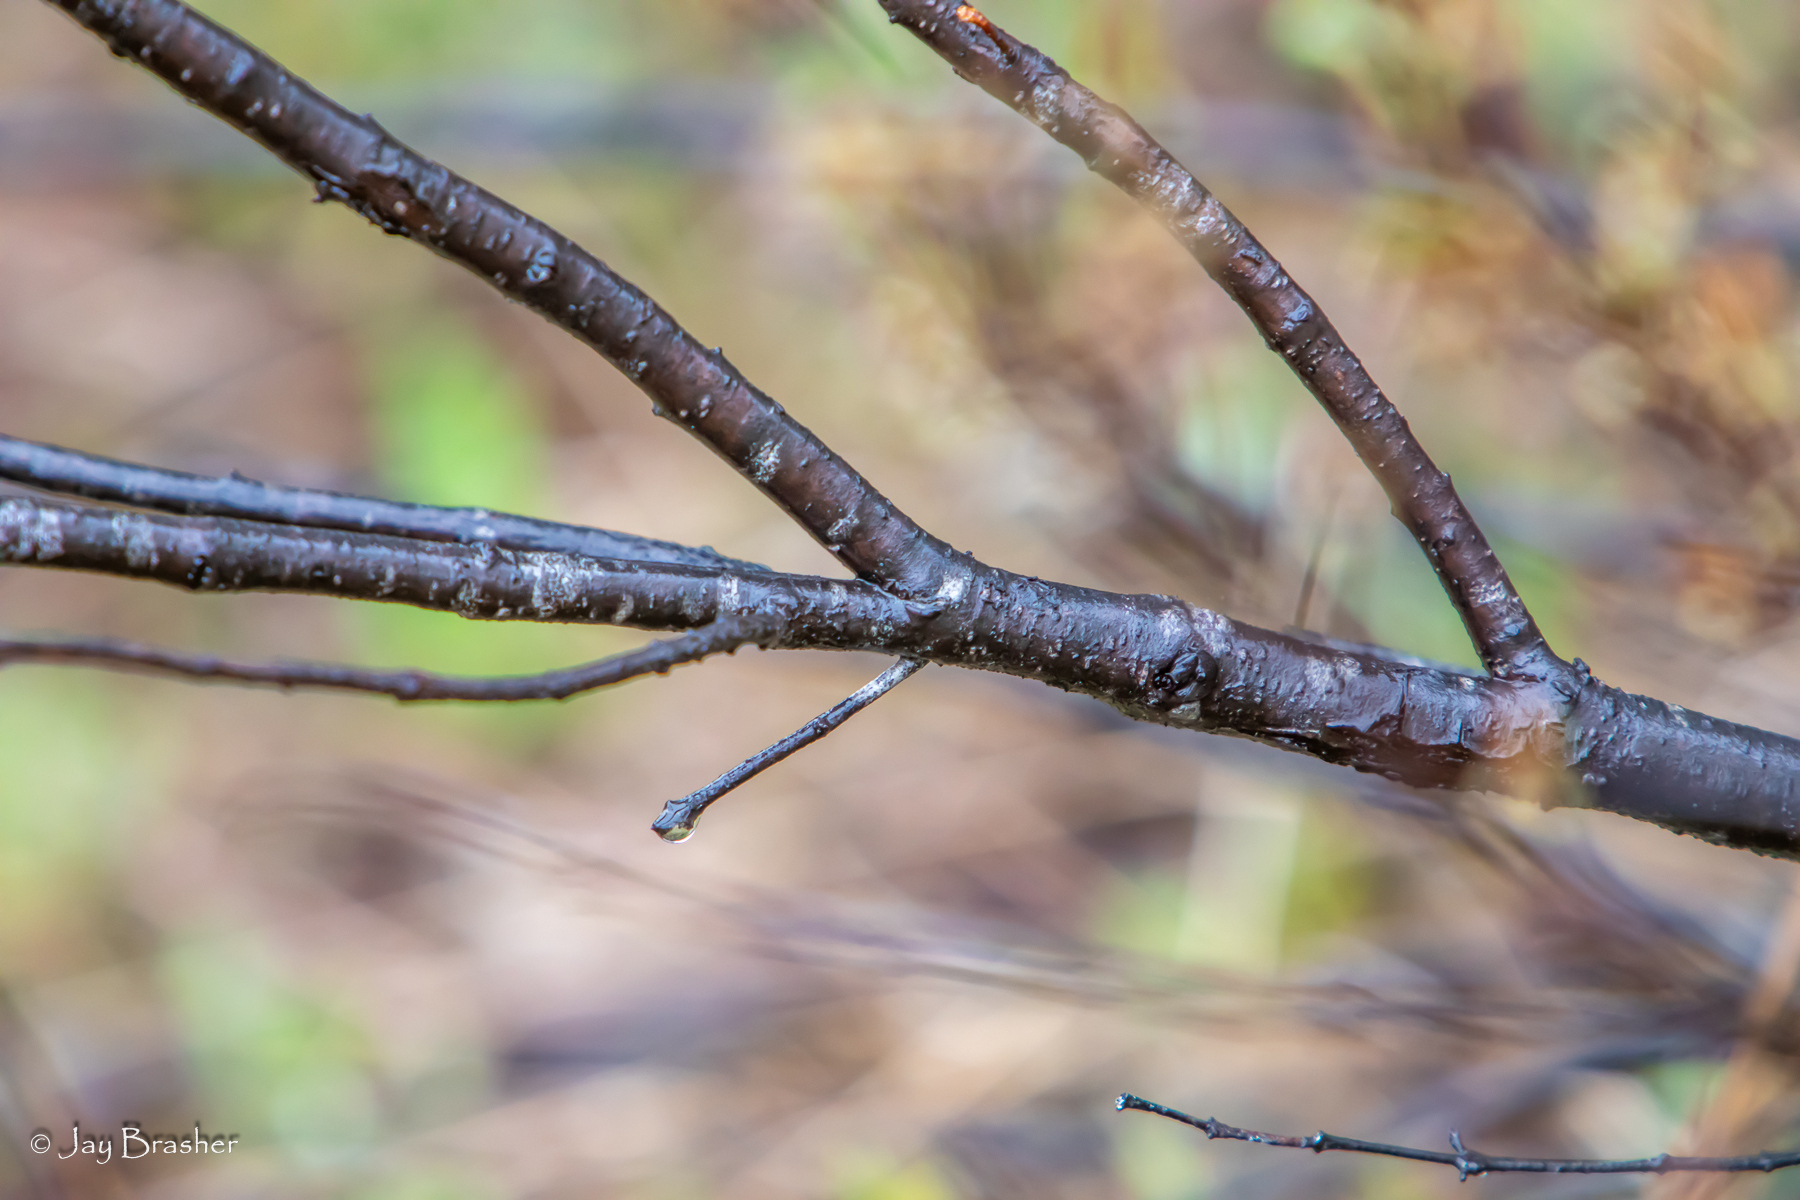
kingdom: Plantae
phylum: Tracheophyta
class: Magnoliopsida
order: Rosales
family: Elaeagnaceae
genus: Shepherdia
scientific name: Shepherdia canadensis
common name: Soapberry
